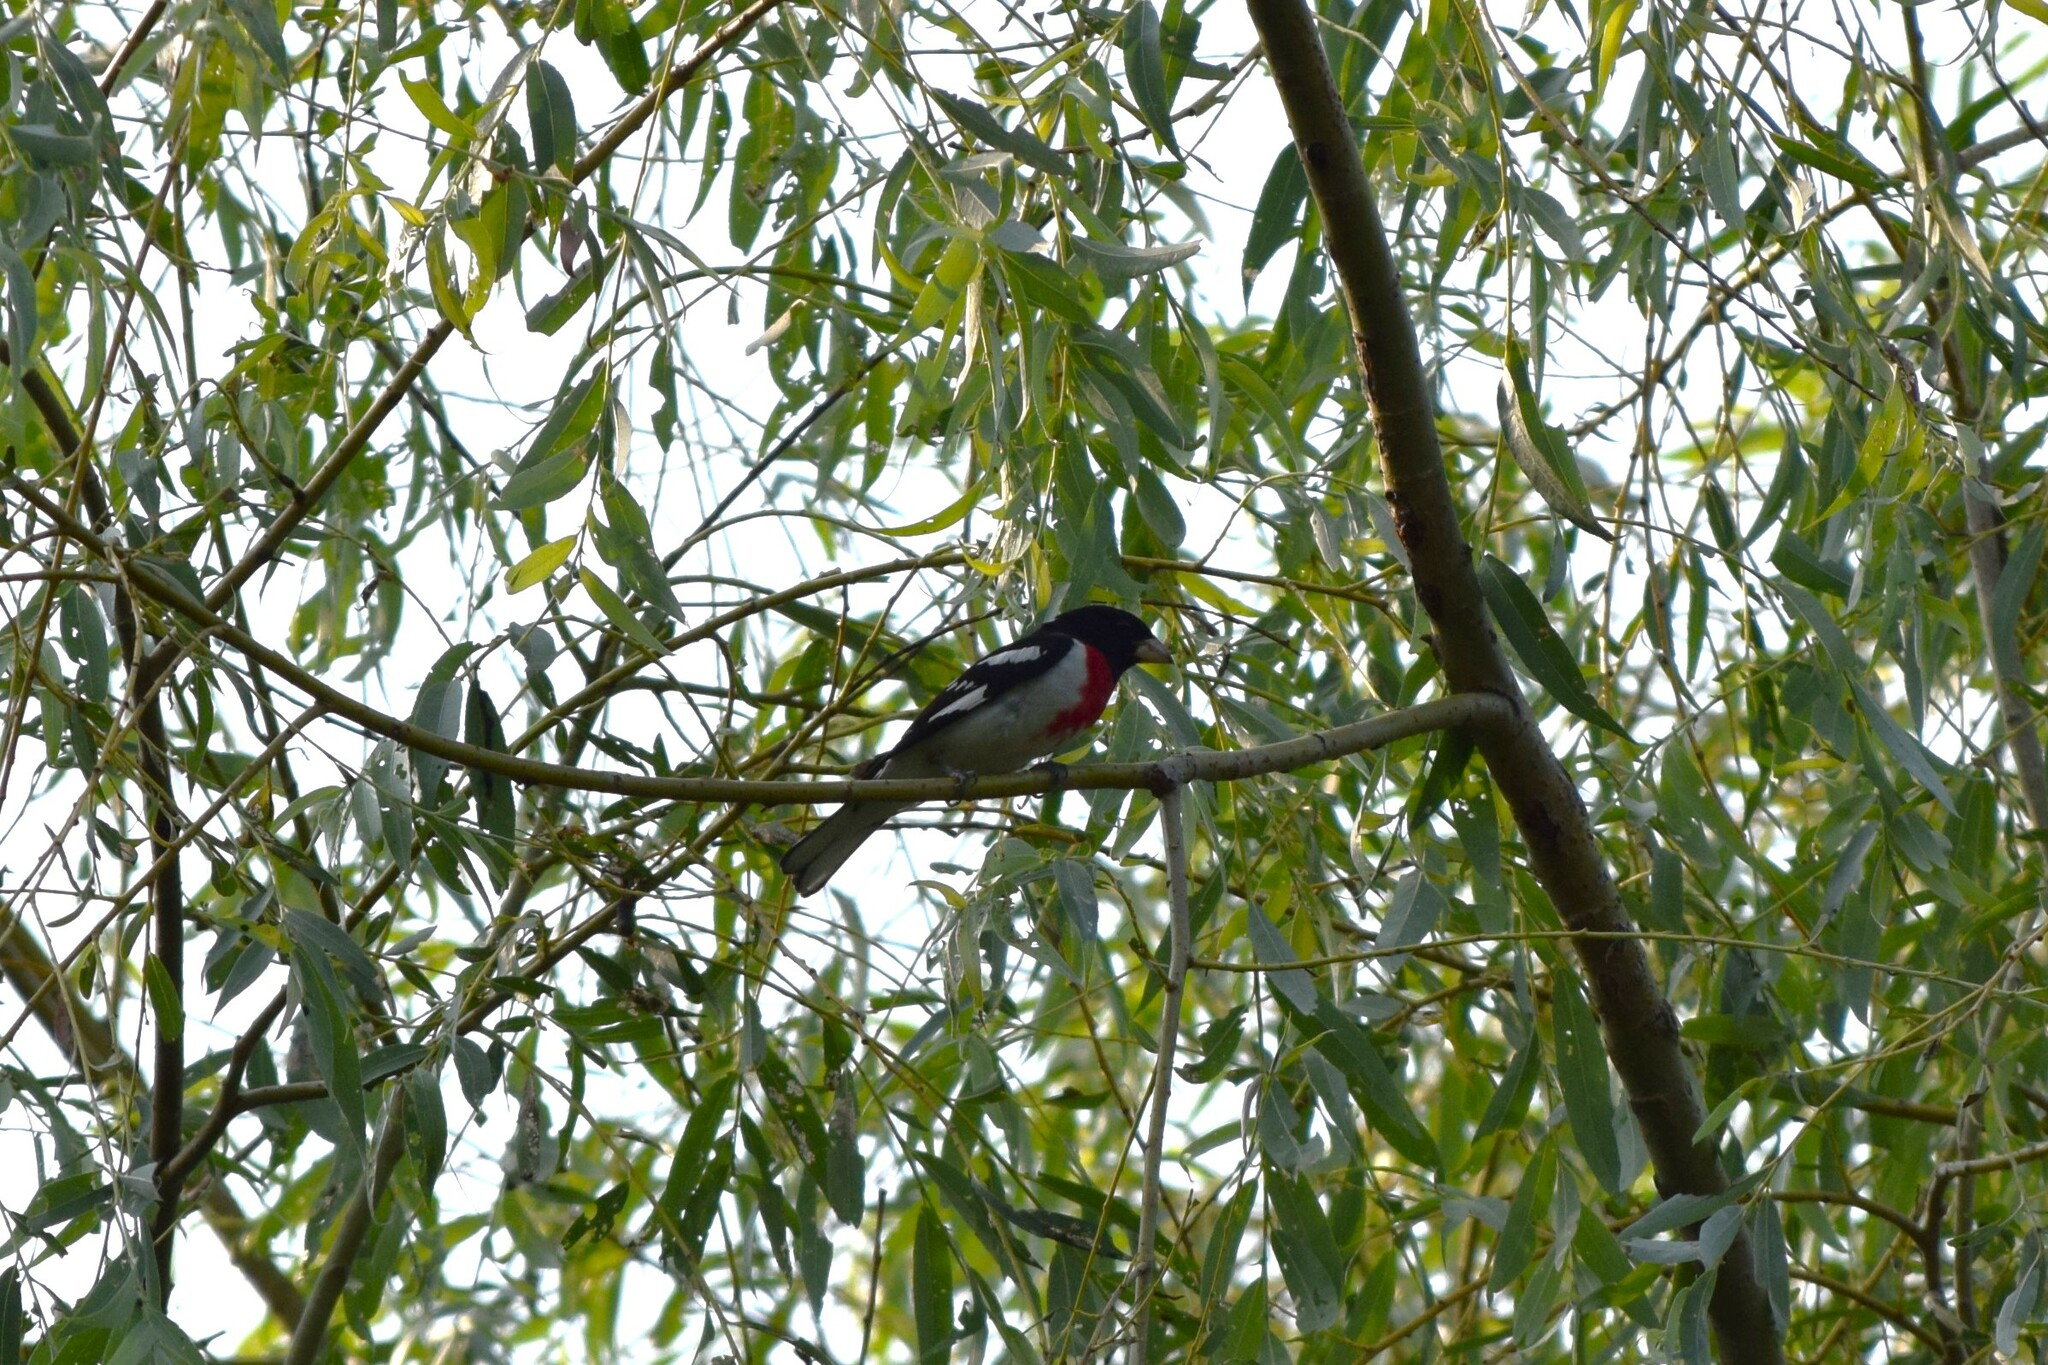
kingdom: Animalia
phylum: Chordata
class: Aves
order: Passeriformes
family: Cardinalidae
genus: Pheucticus
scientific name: Pheucticus ludovicianus
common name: Rose-breasted grosbeak
